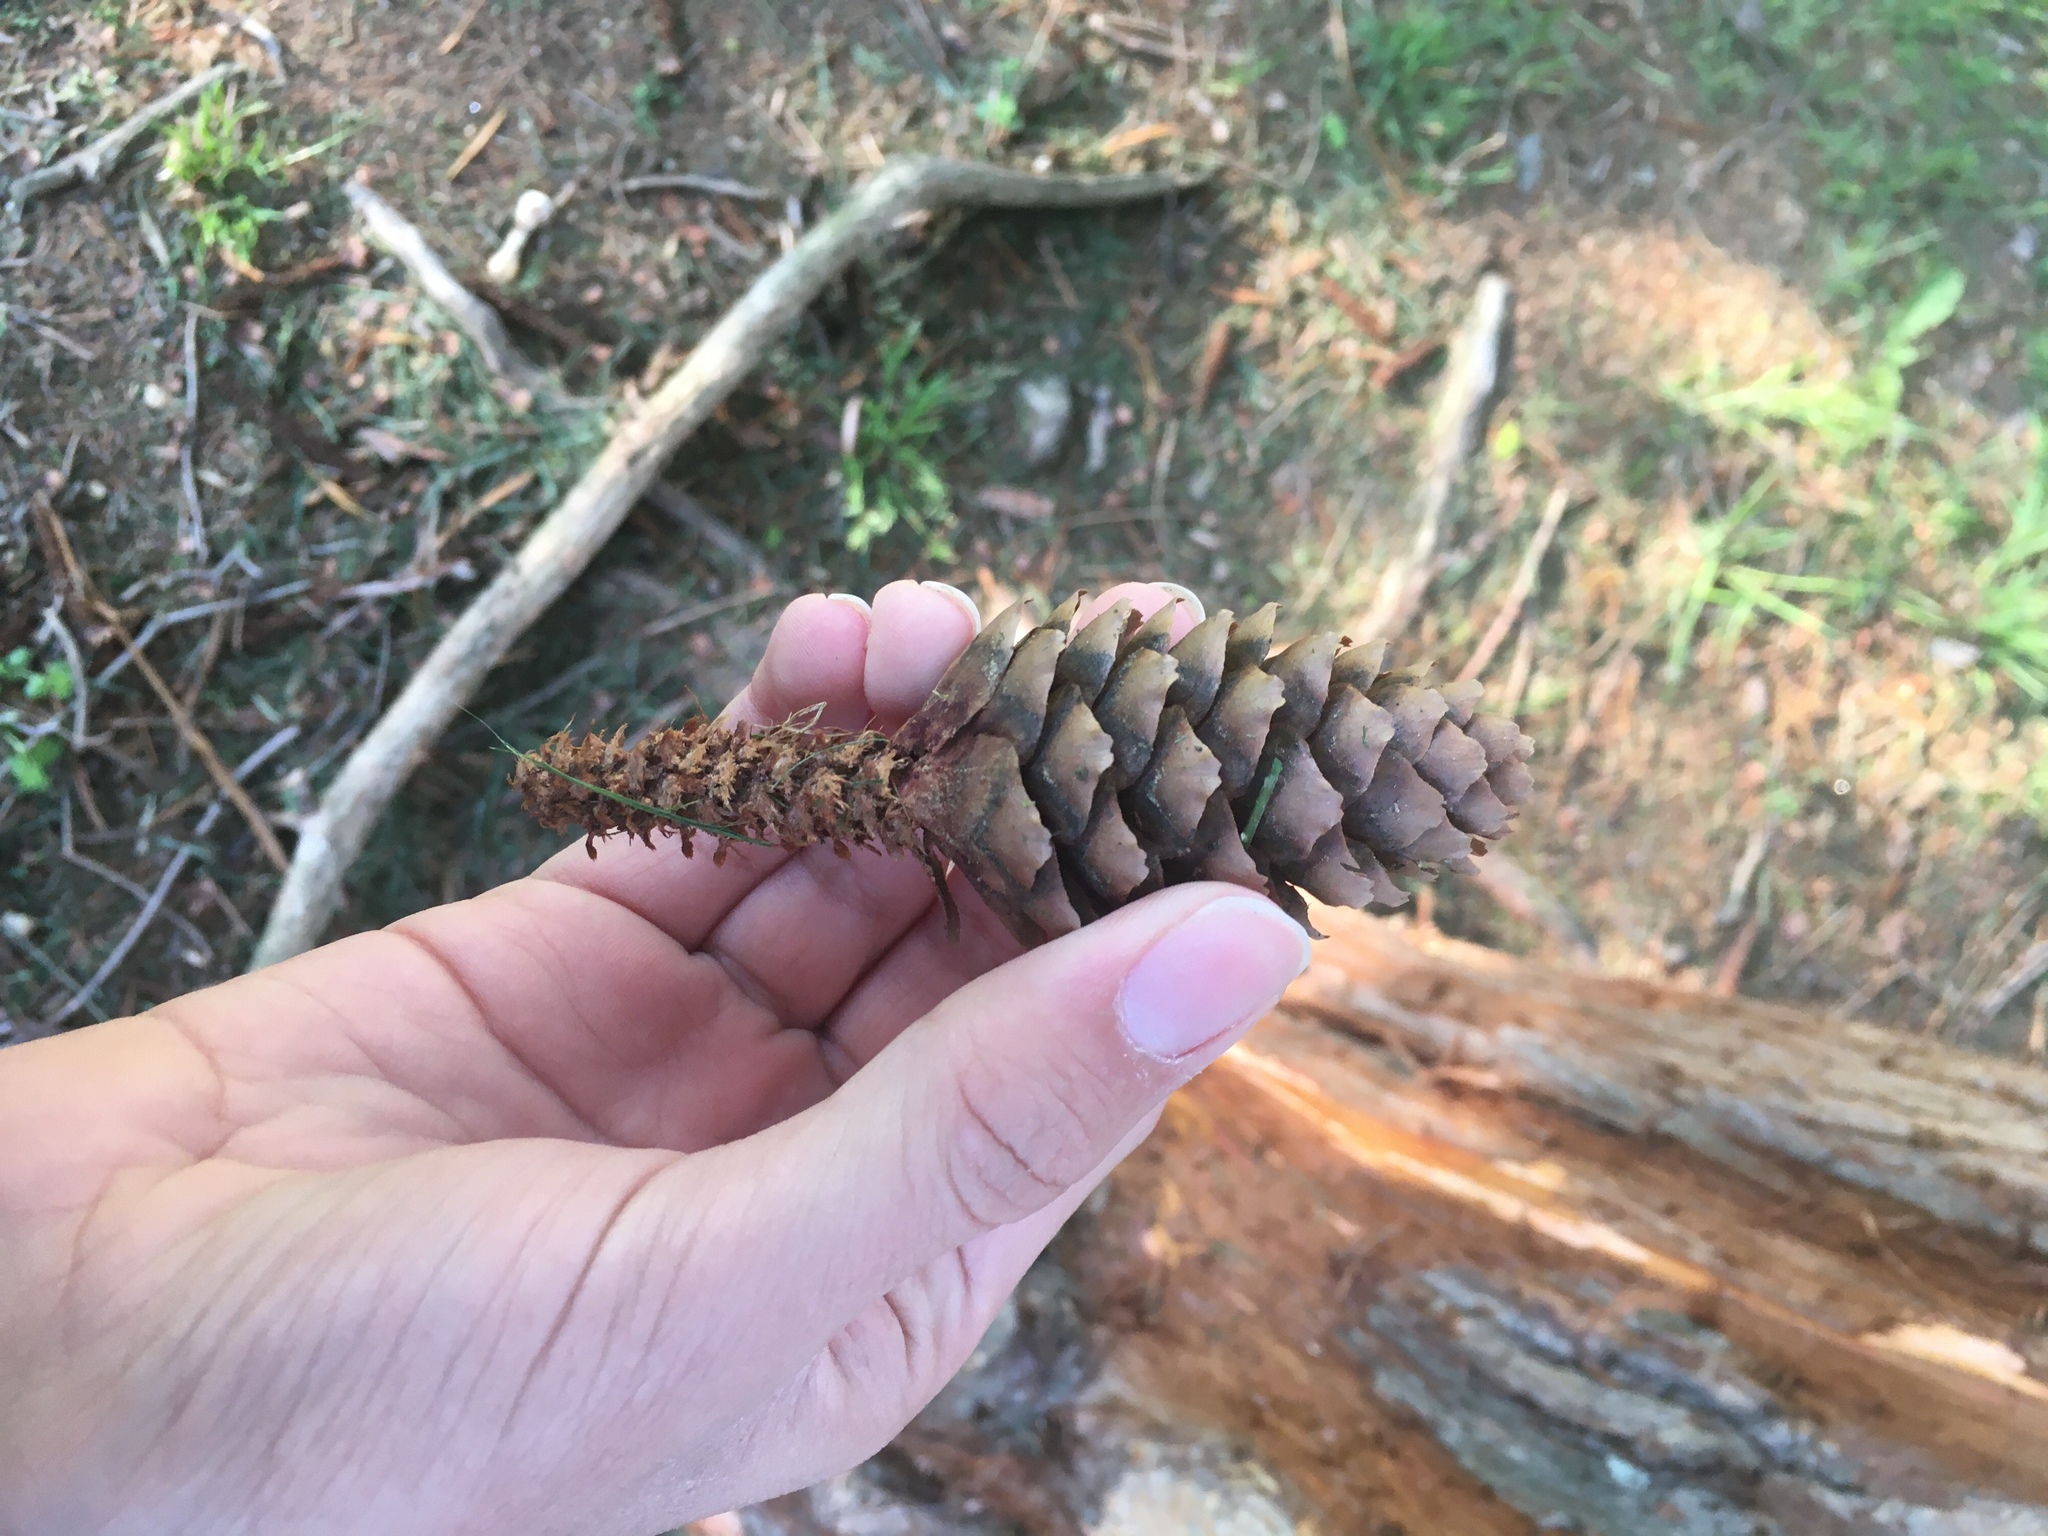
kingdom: Plantae
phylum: Tracheophyta
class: Pinopsida
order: Pinales
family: Pinaceae
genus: Picea
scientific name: Picea abies
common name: Norway spruce
